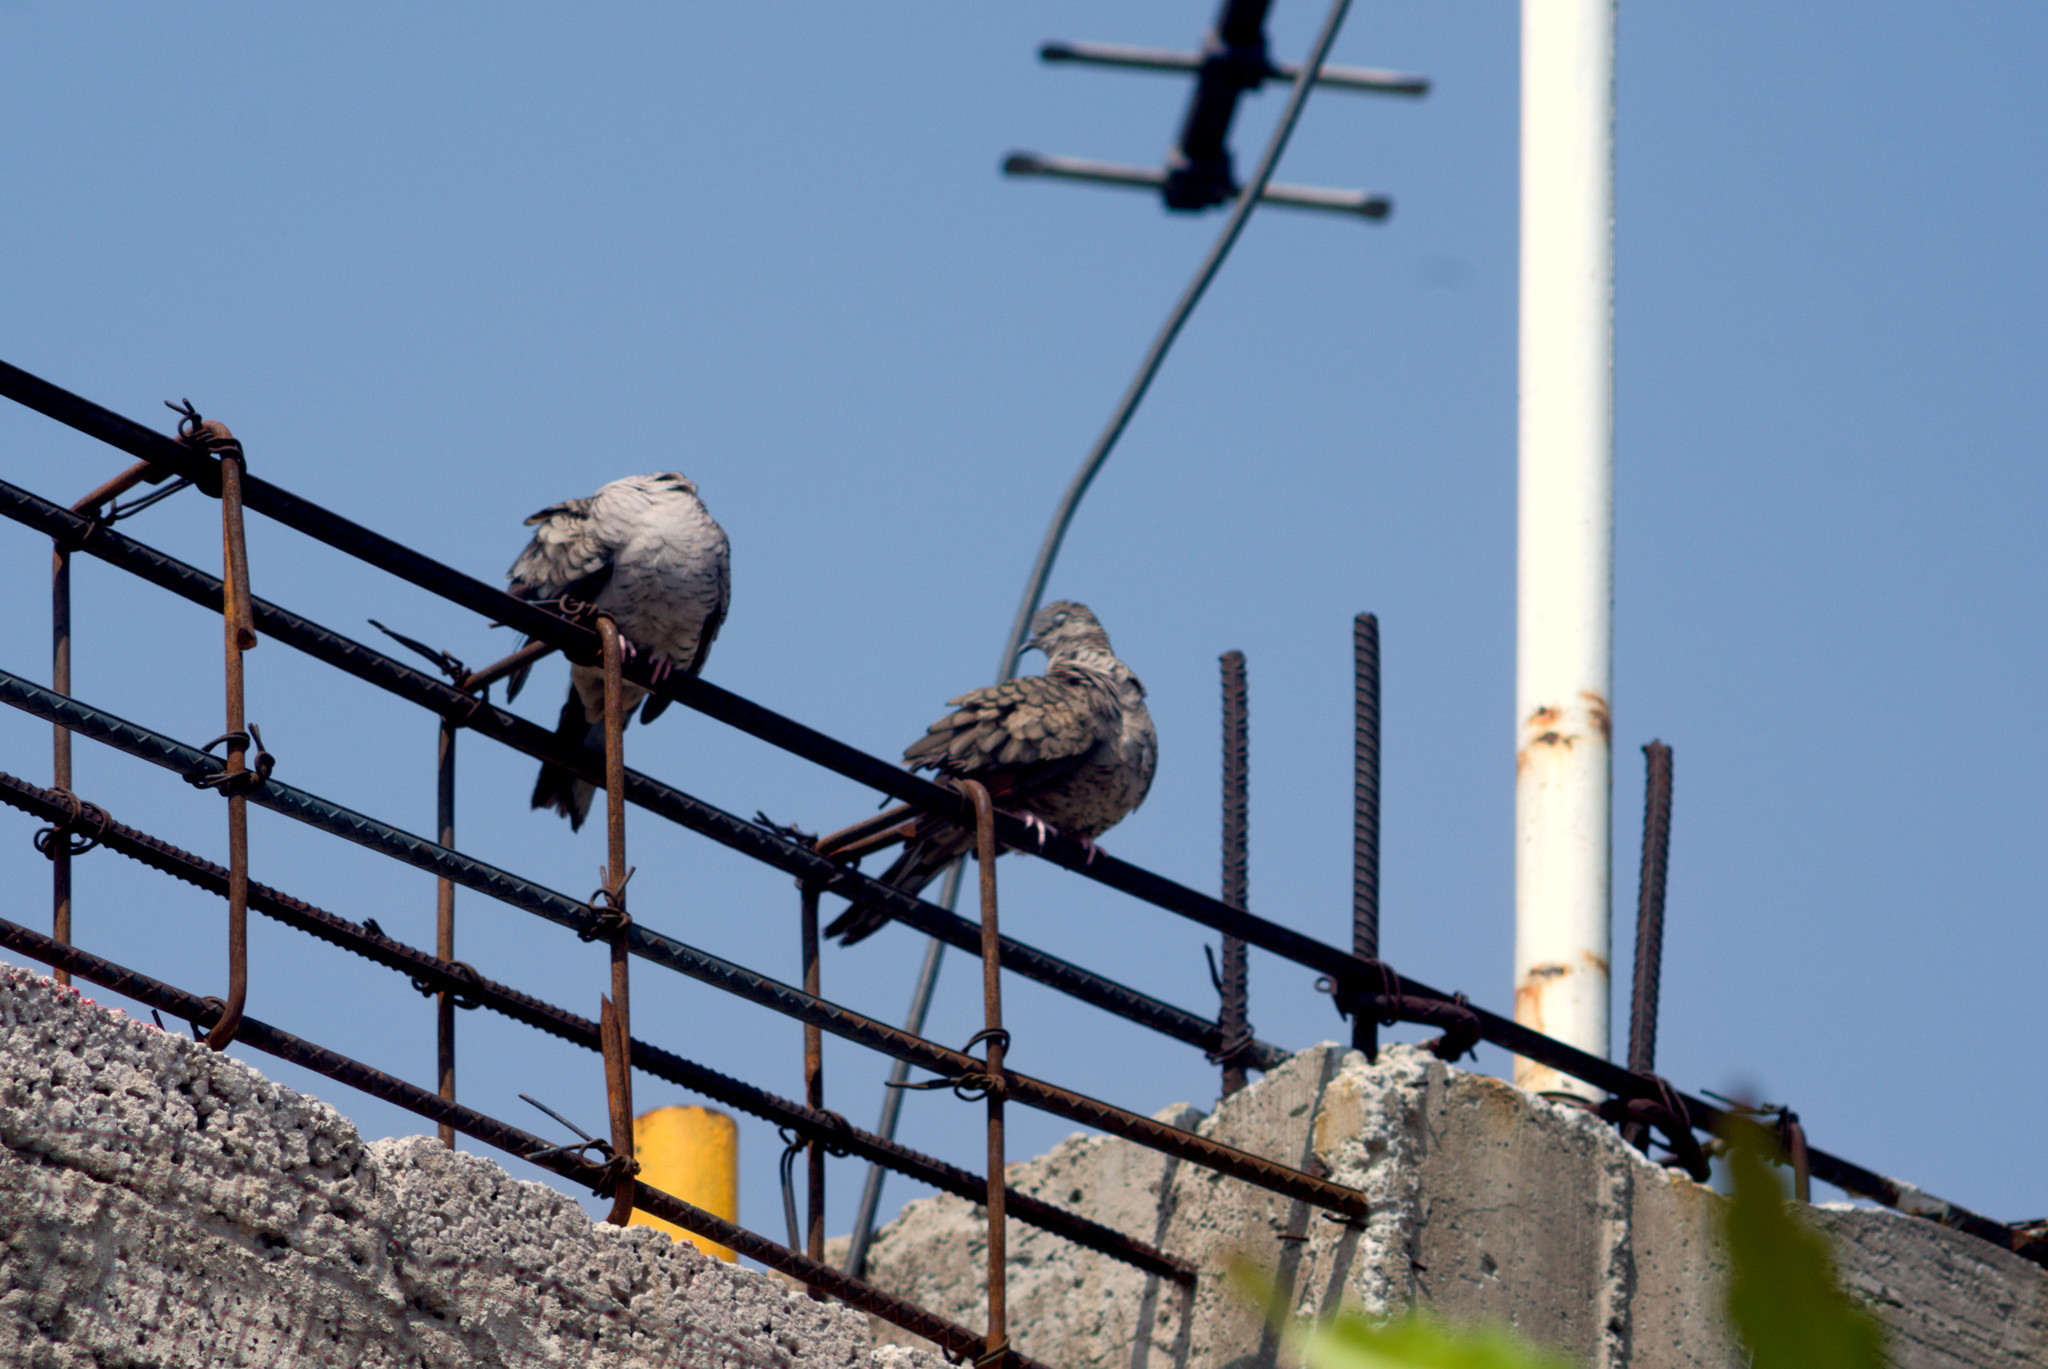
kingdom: Animalia
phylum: Chordata
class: Aves
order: Columbiformes
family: Columbidae
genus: Columbina
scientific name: Columbina inca
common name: Inca dove
